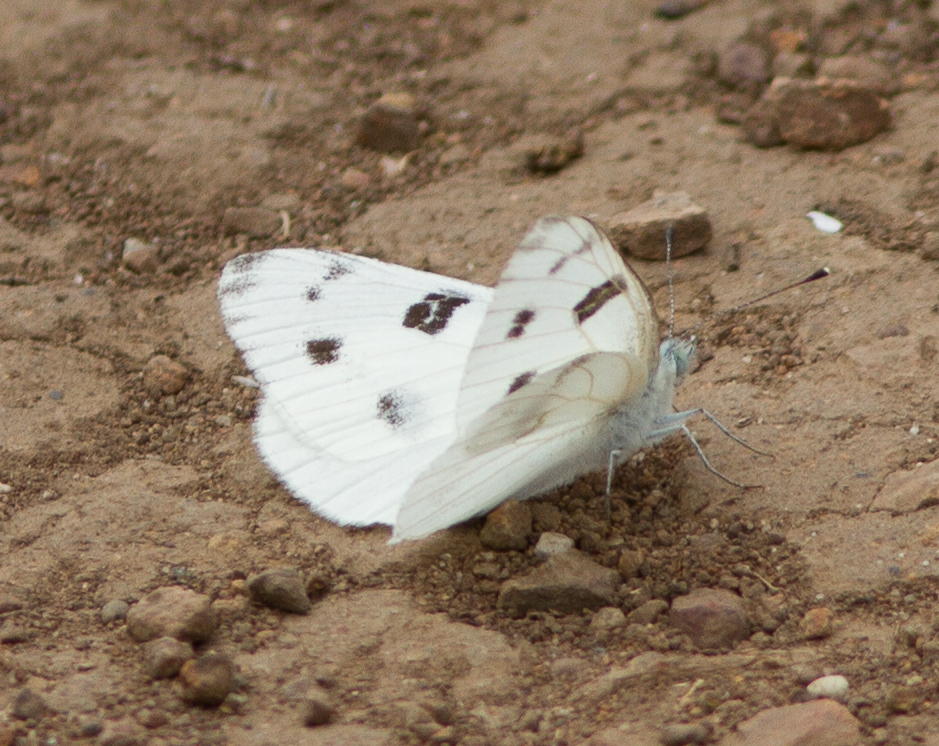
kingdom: Animalia
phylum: Arthropoda
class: Insecta
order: Lepidoptera
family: Pieridae
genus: Pontia
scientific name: Pontia protodice
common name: Checkered white
